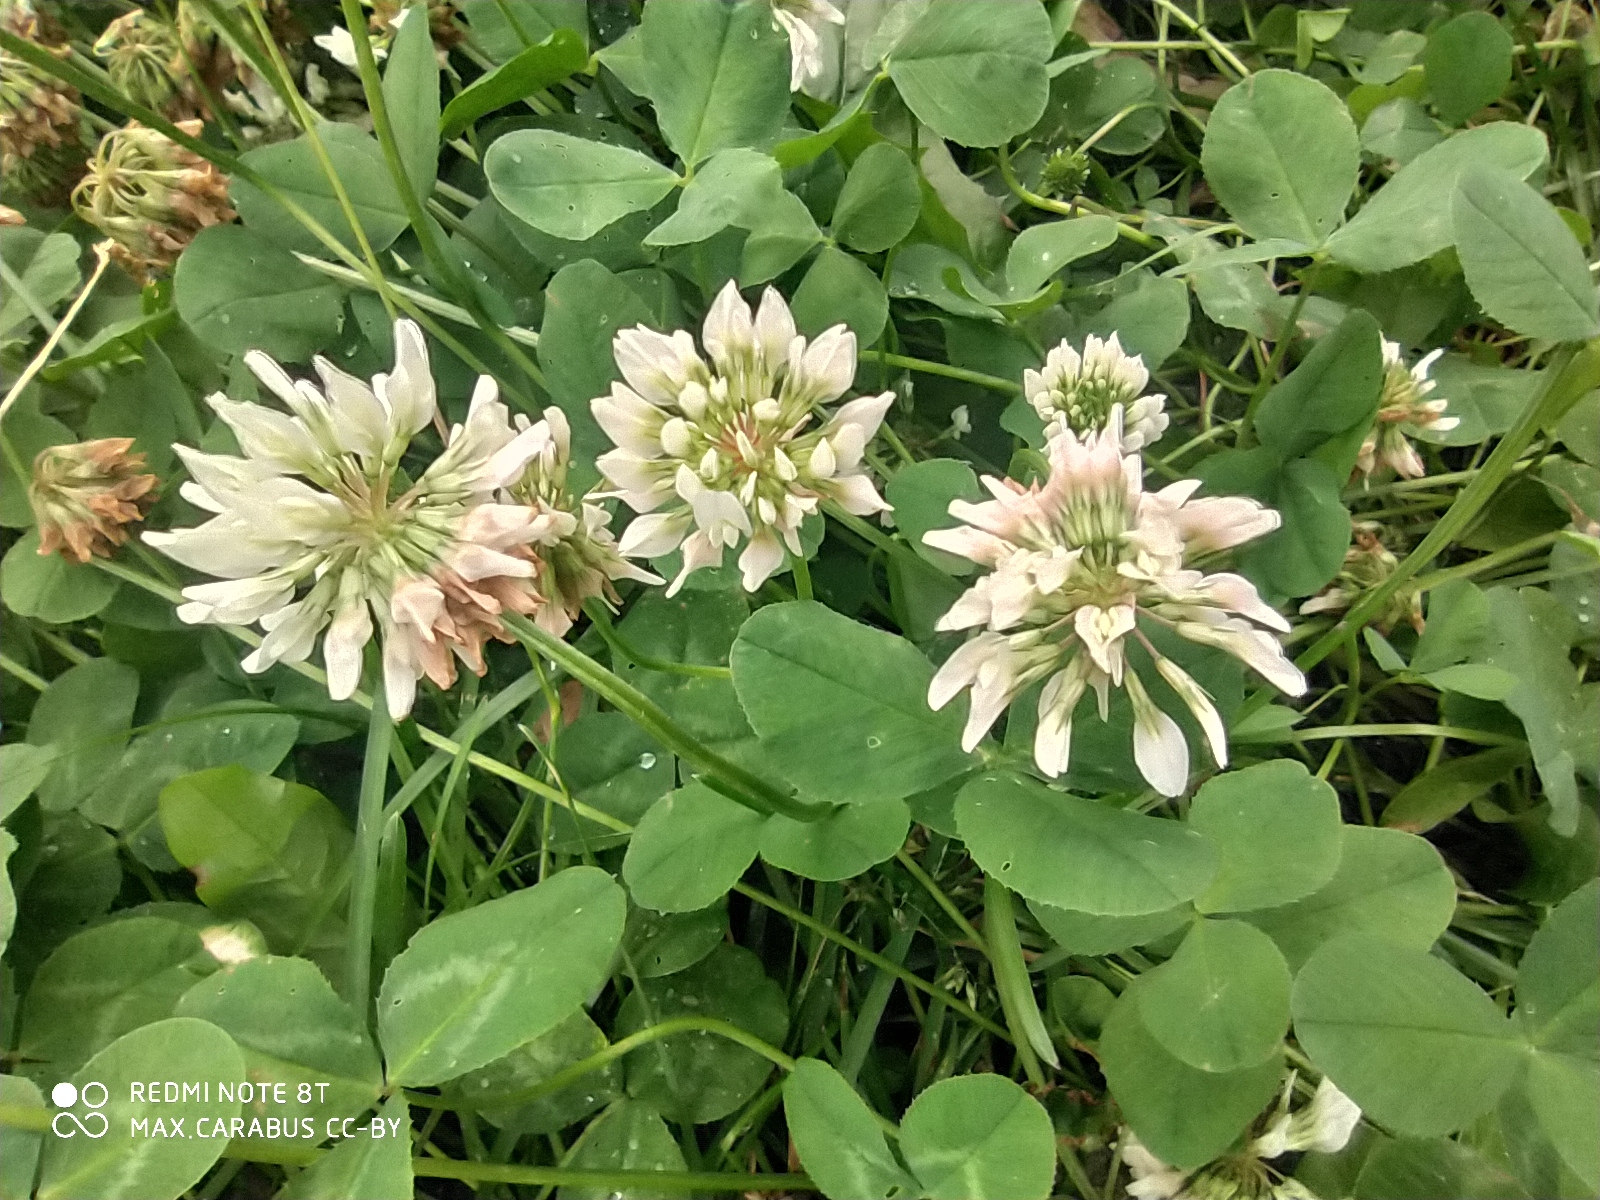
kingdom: Plantae
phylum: Tracheophyta
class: Magnoliopsida
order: Fabales
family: Fabaceae
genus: Trifolium
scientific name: Trifolium repens
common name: White clover
